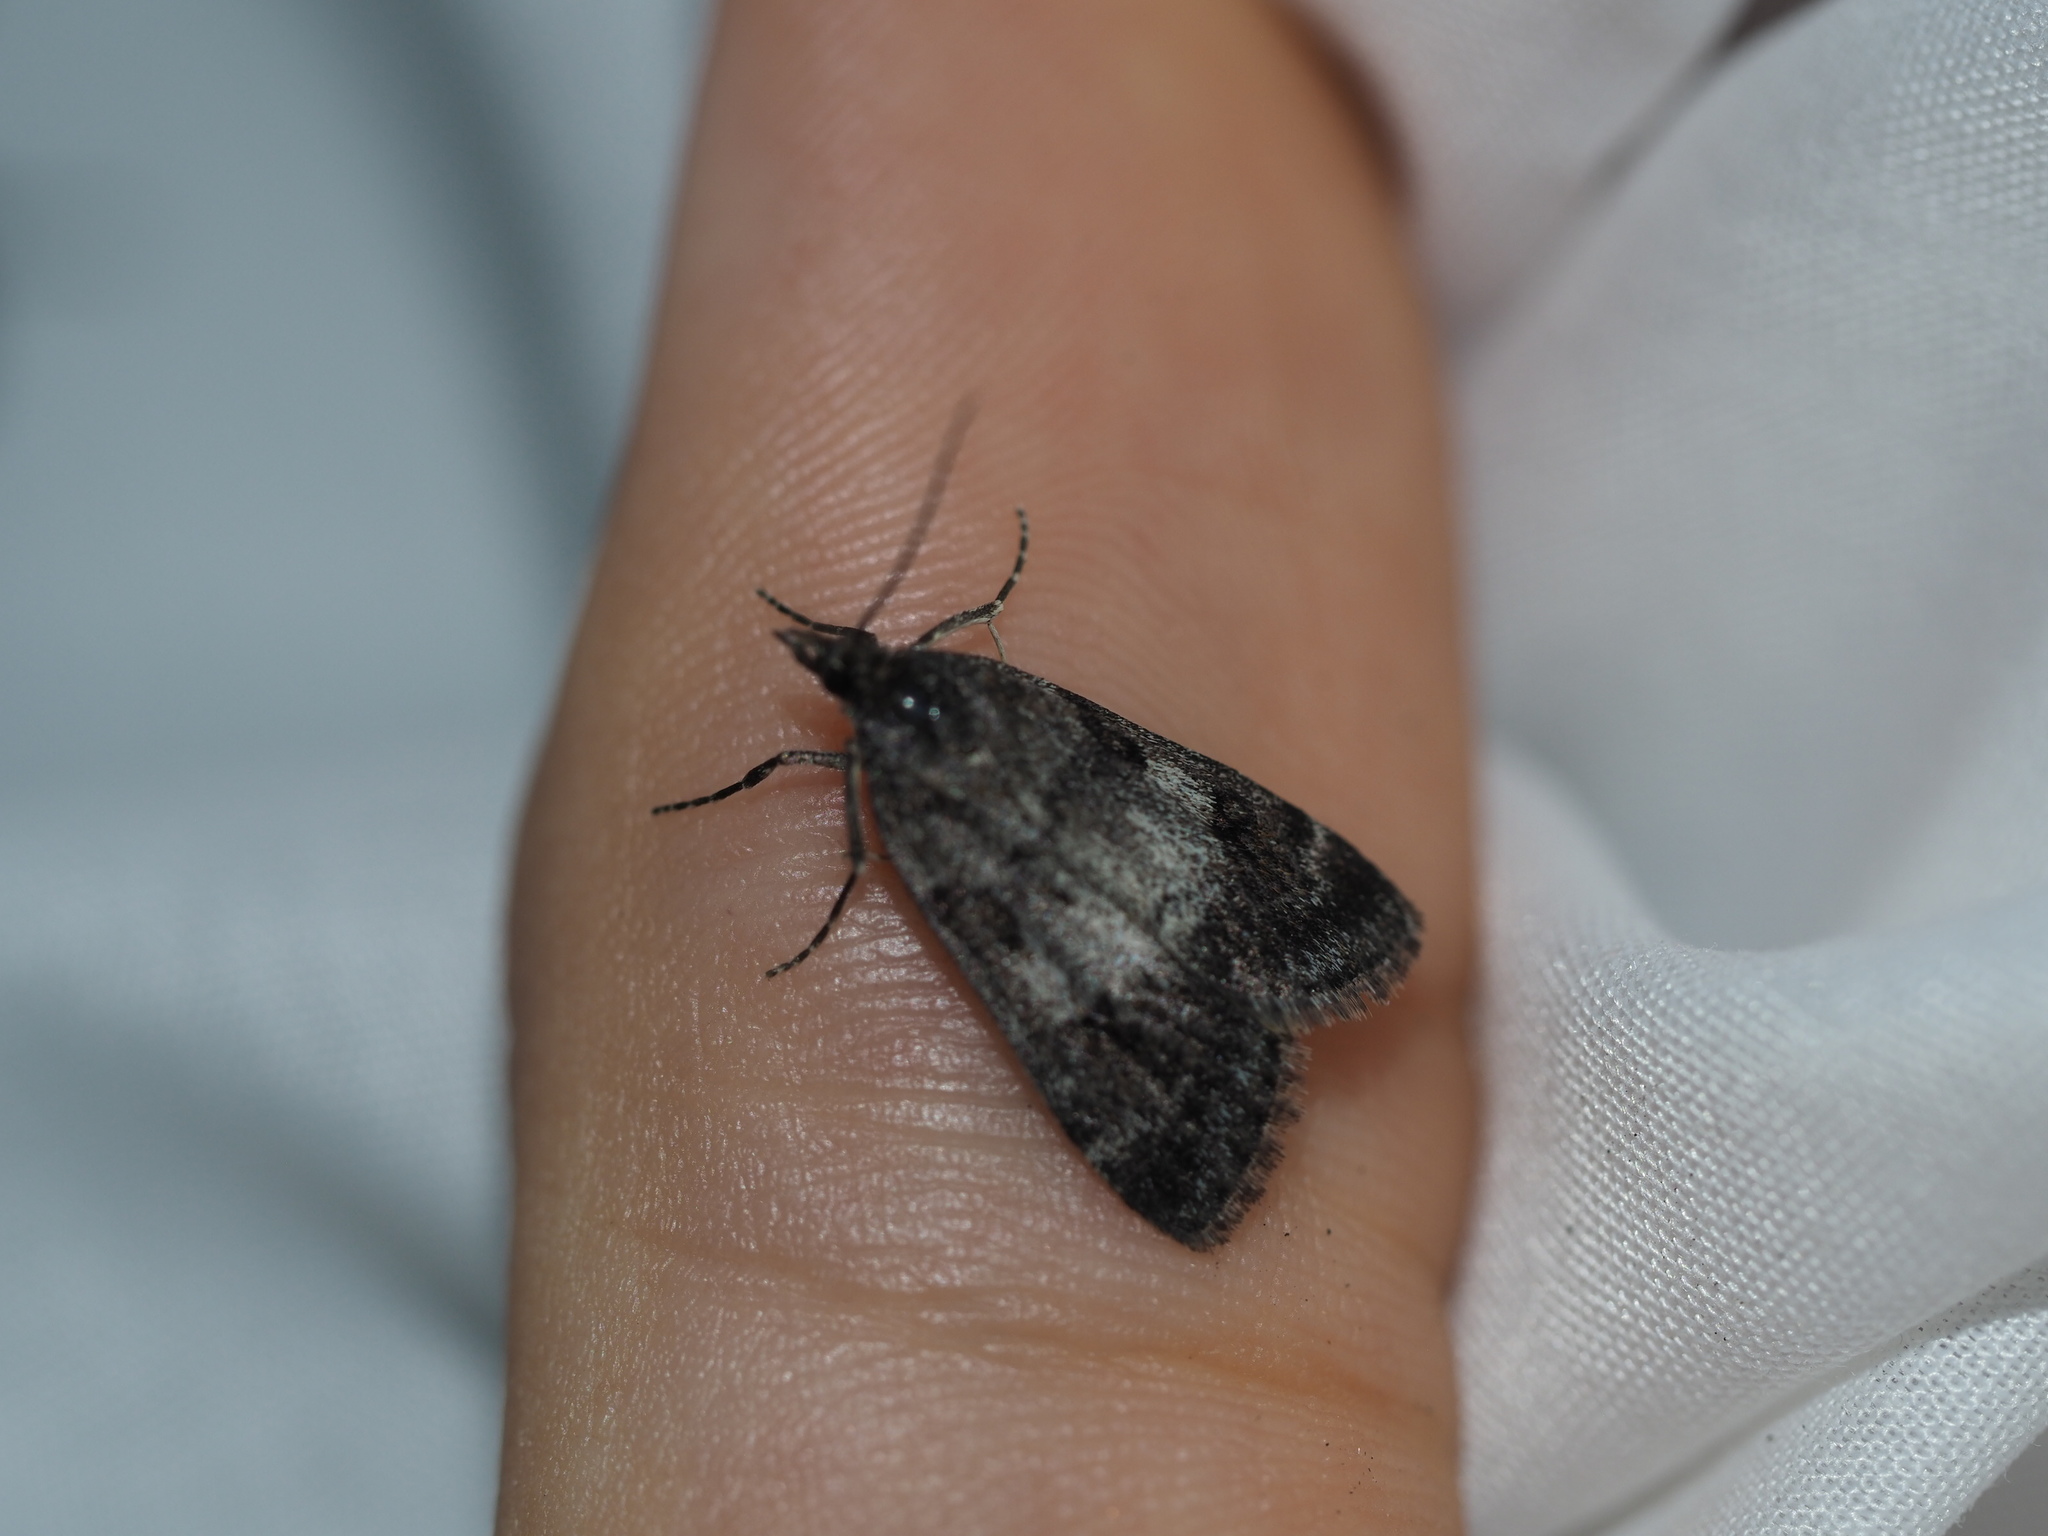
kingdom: Animalia
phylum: Arthropoda
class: Insecta
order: Lepidoptera
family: Crambidae
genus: Gesneria
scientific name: Gesneria centuriella
